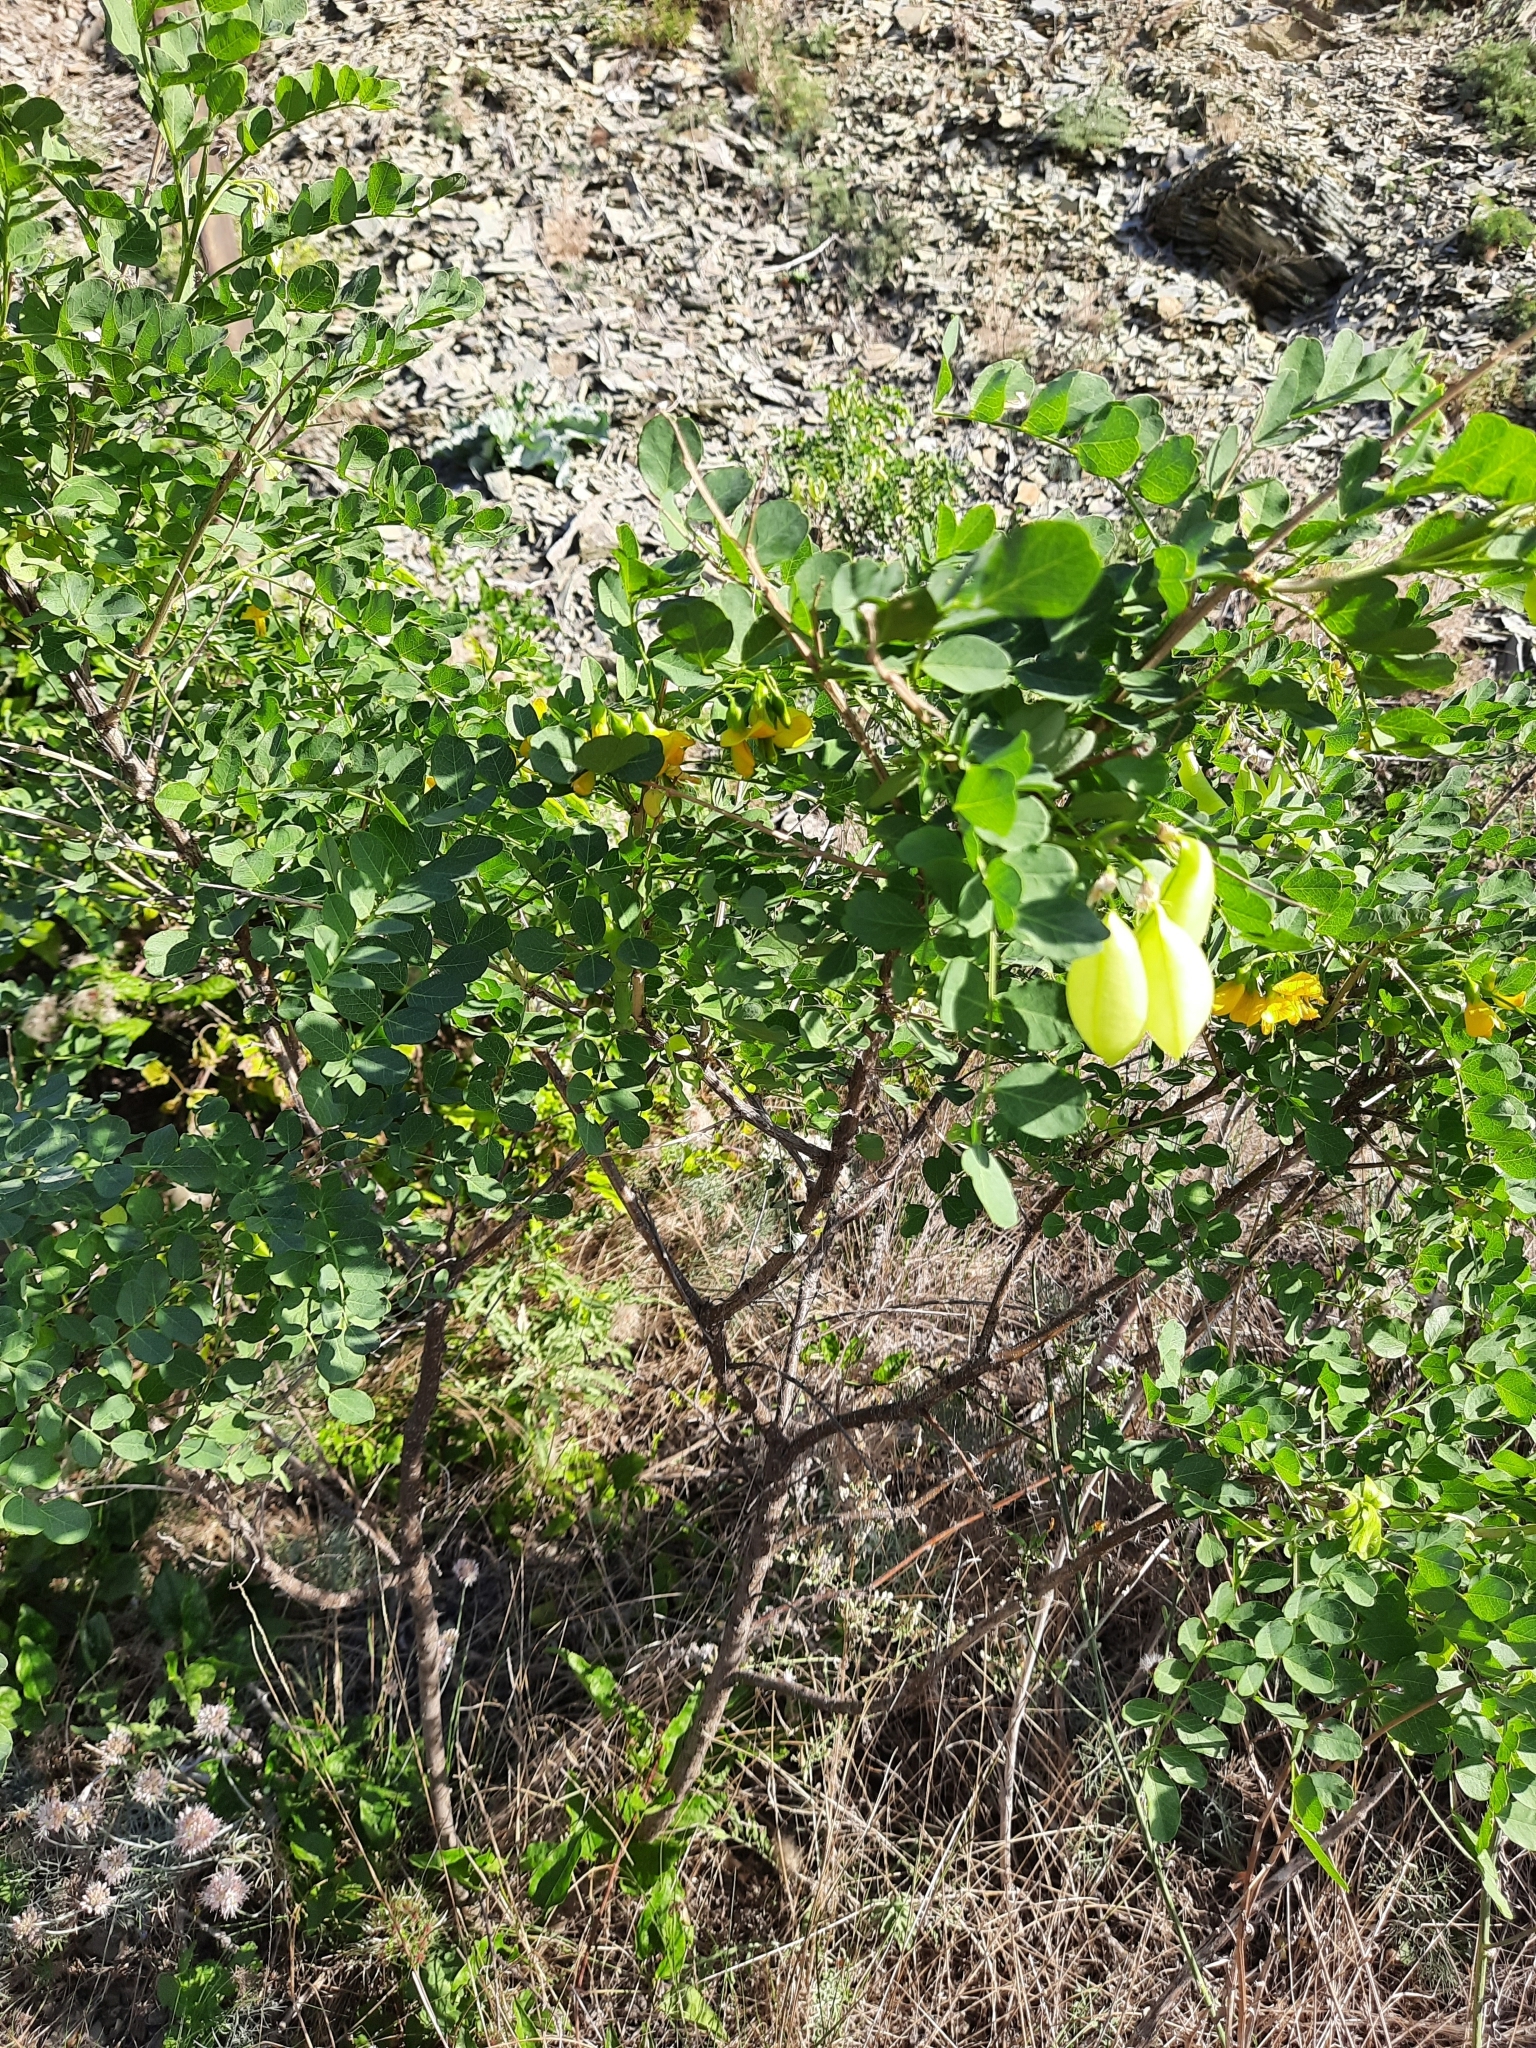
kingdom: Plantae
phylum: Tracheophyta
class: Magnoliopsida
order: Fabales
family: Fabaceae
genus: Colutea
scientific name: Colutea cilicica
